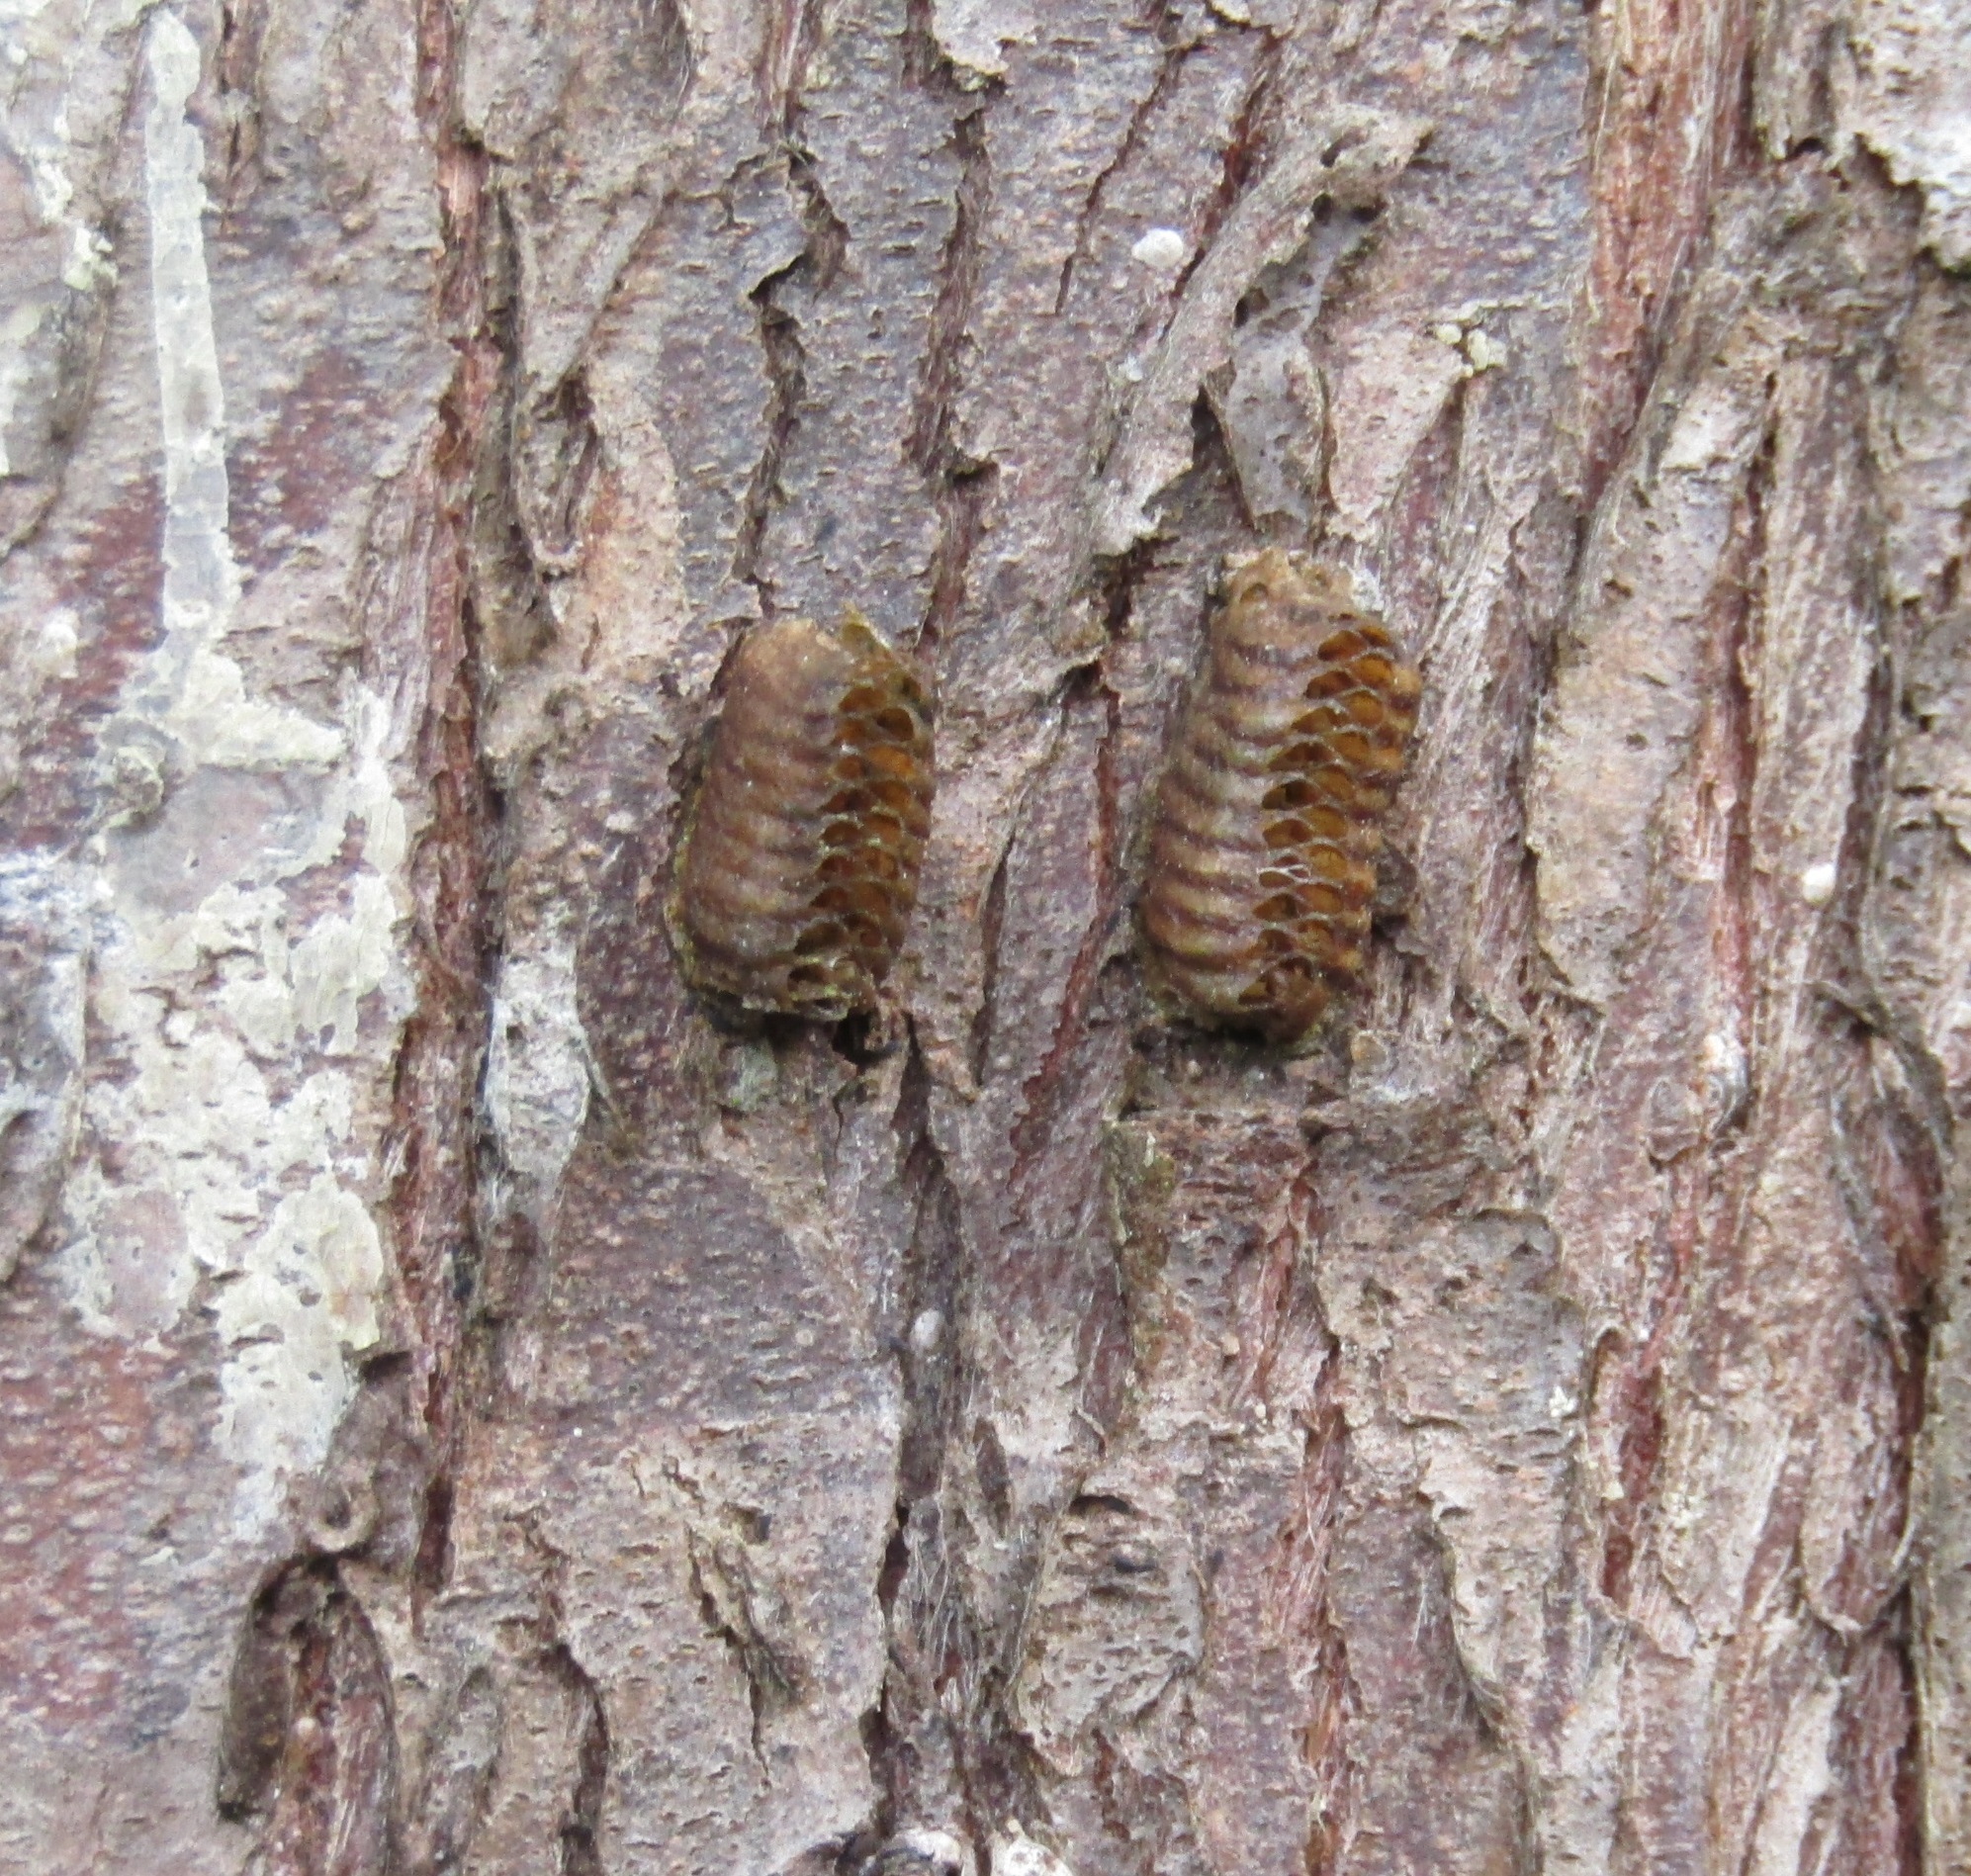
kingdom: Animalia
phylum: Arthropoda
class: Insecta
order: Mantodea
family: Mantidae
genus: Orthodera
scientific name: Orthodera novaezealandiae
